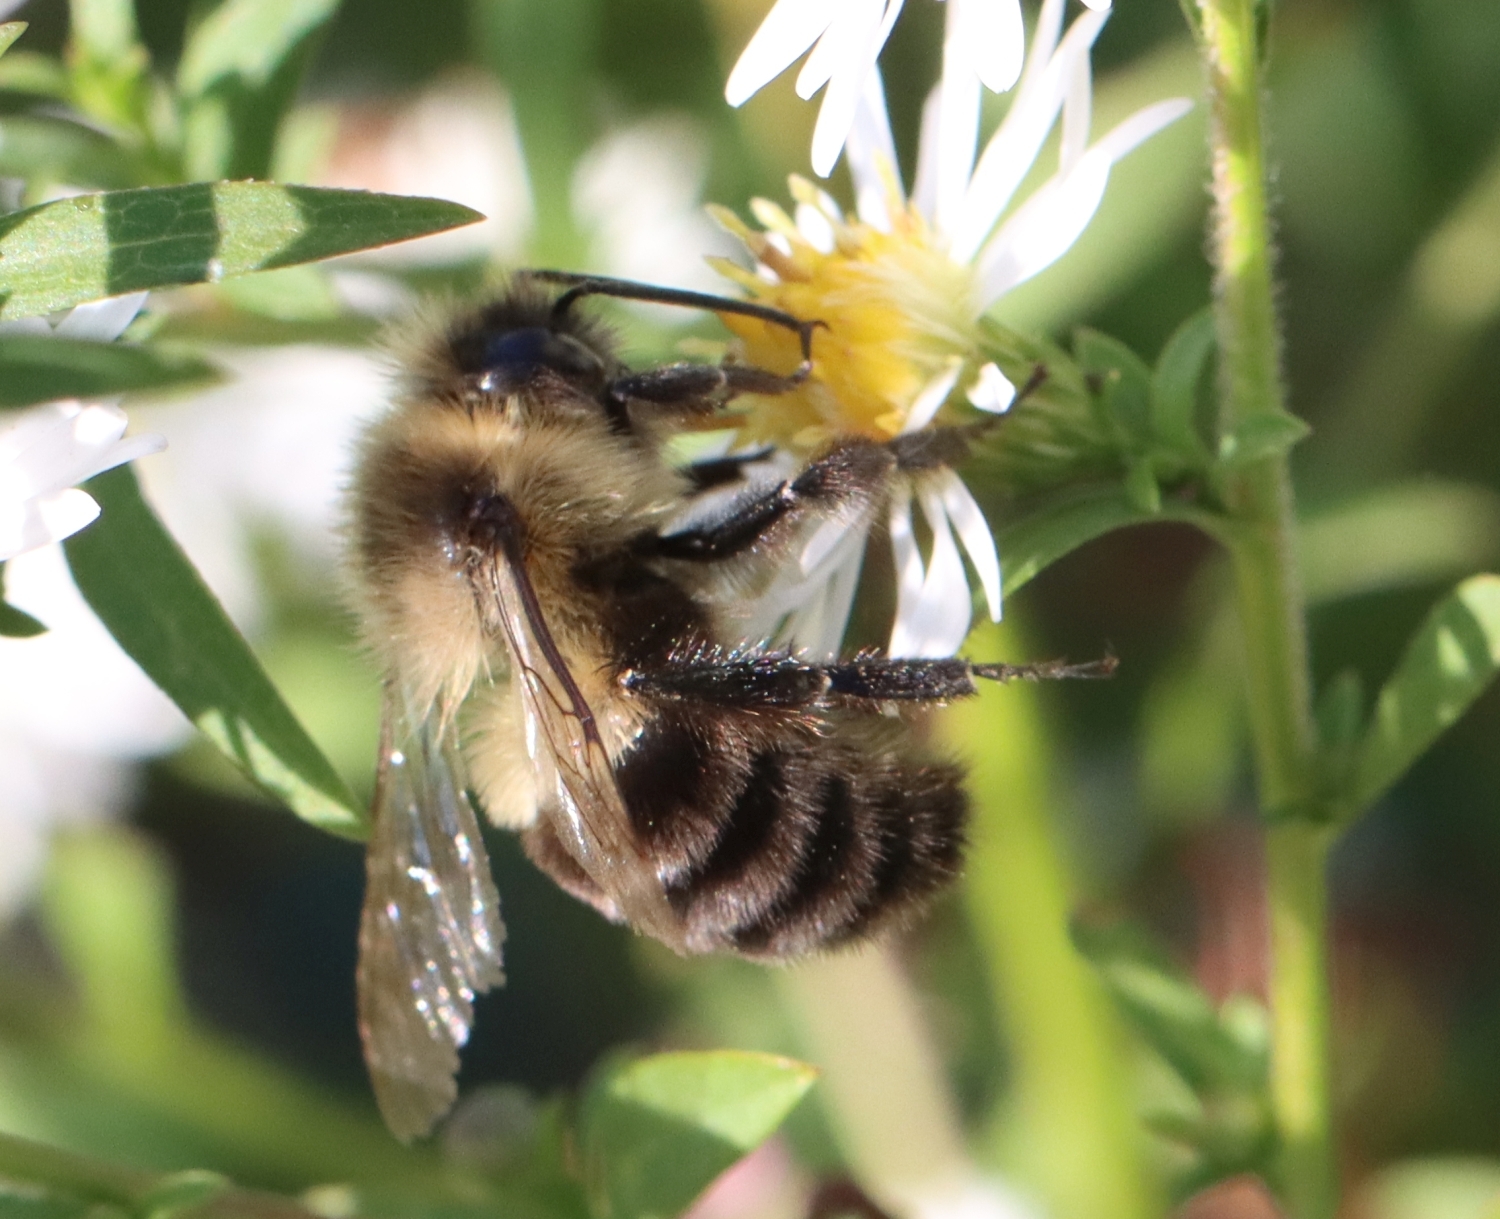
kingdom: Animalia
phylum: Arthropoda
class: Insecta
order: Hymenoptera
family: Apidae
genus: Bombus
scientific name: Bombus impatiens
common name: Common eastern bumble bee
